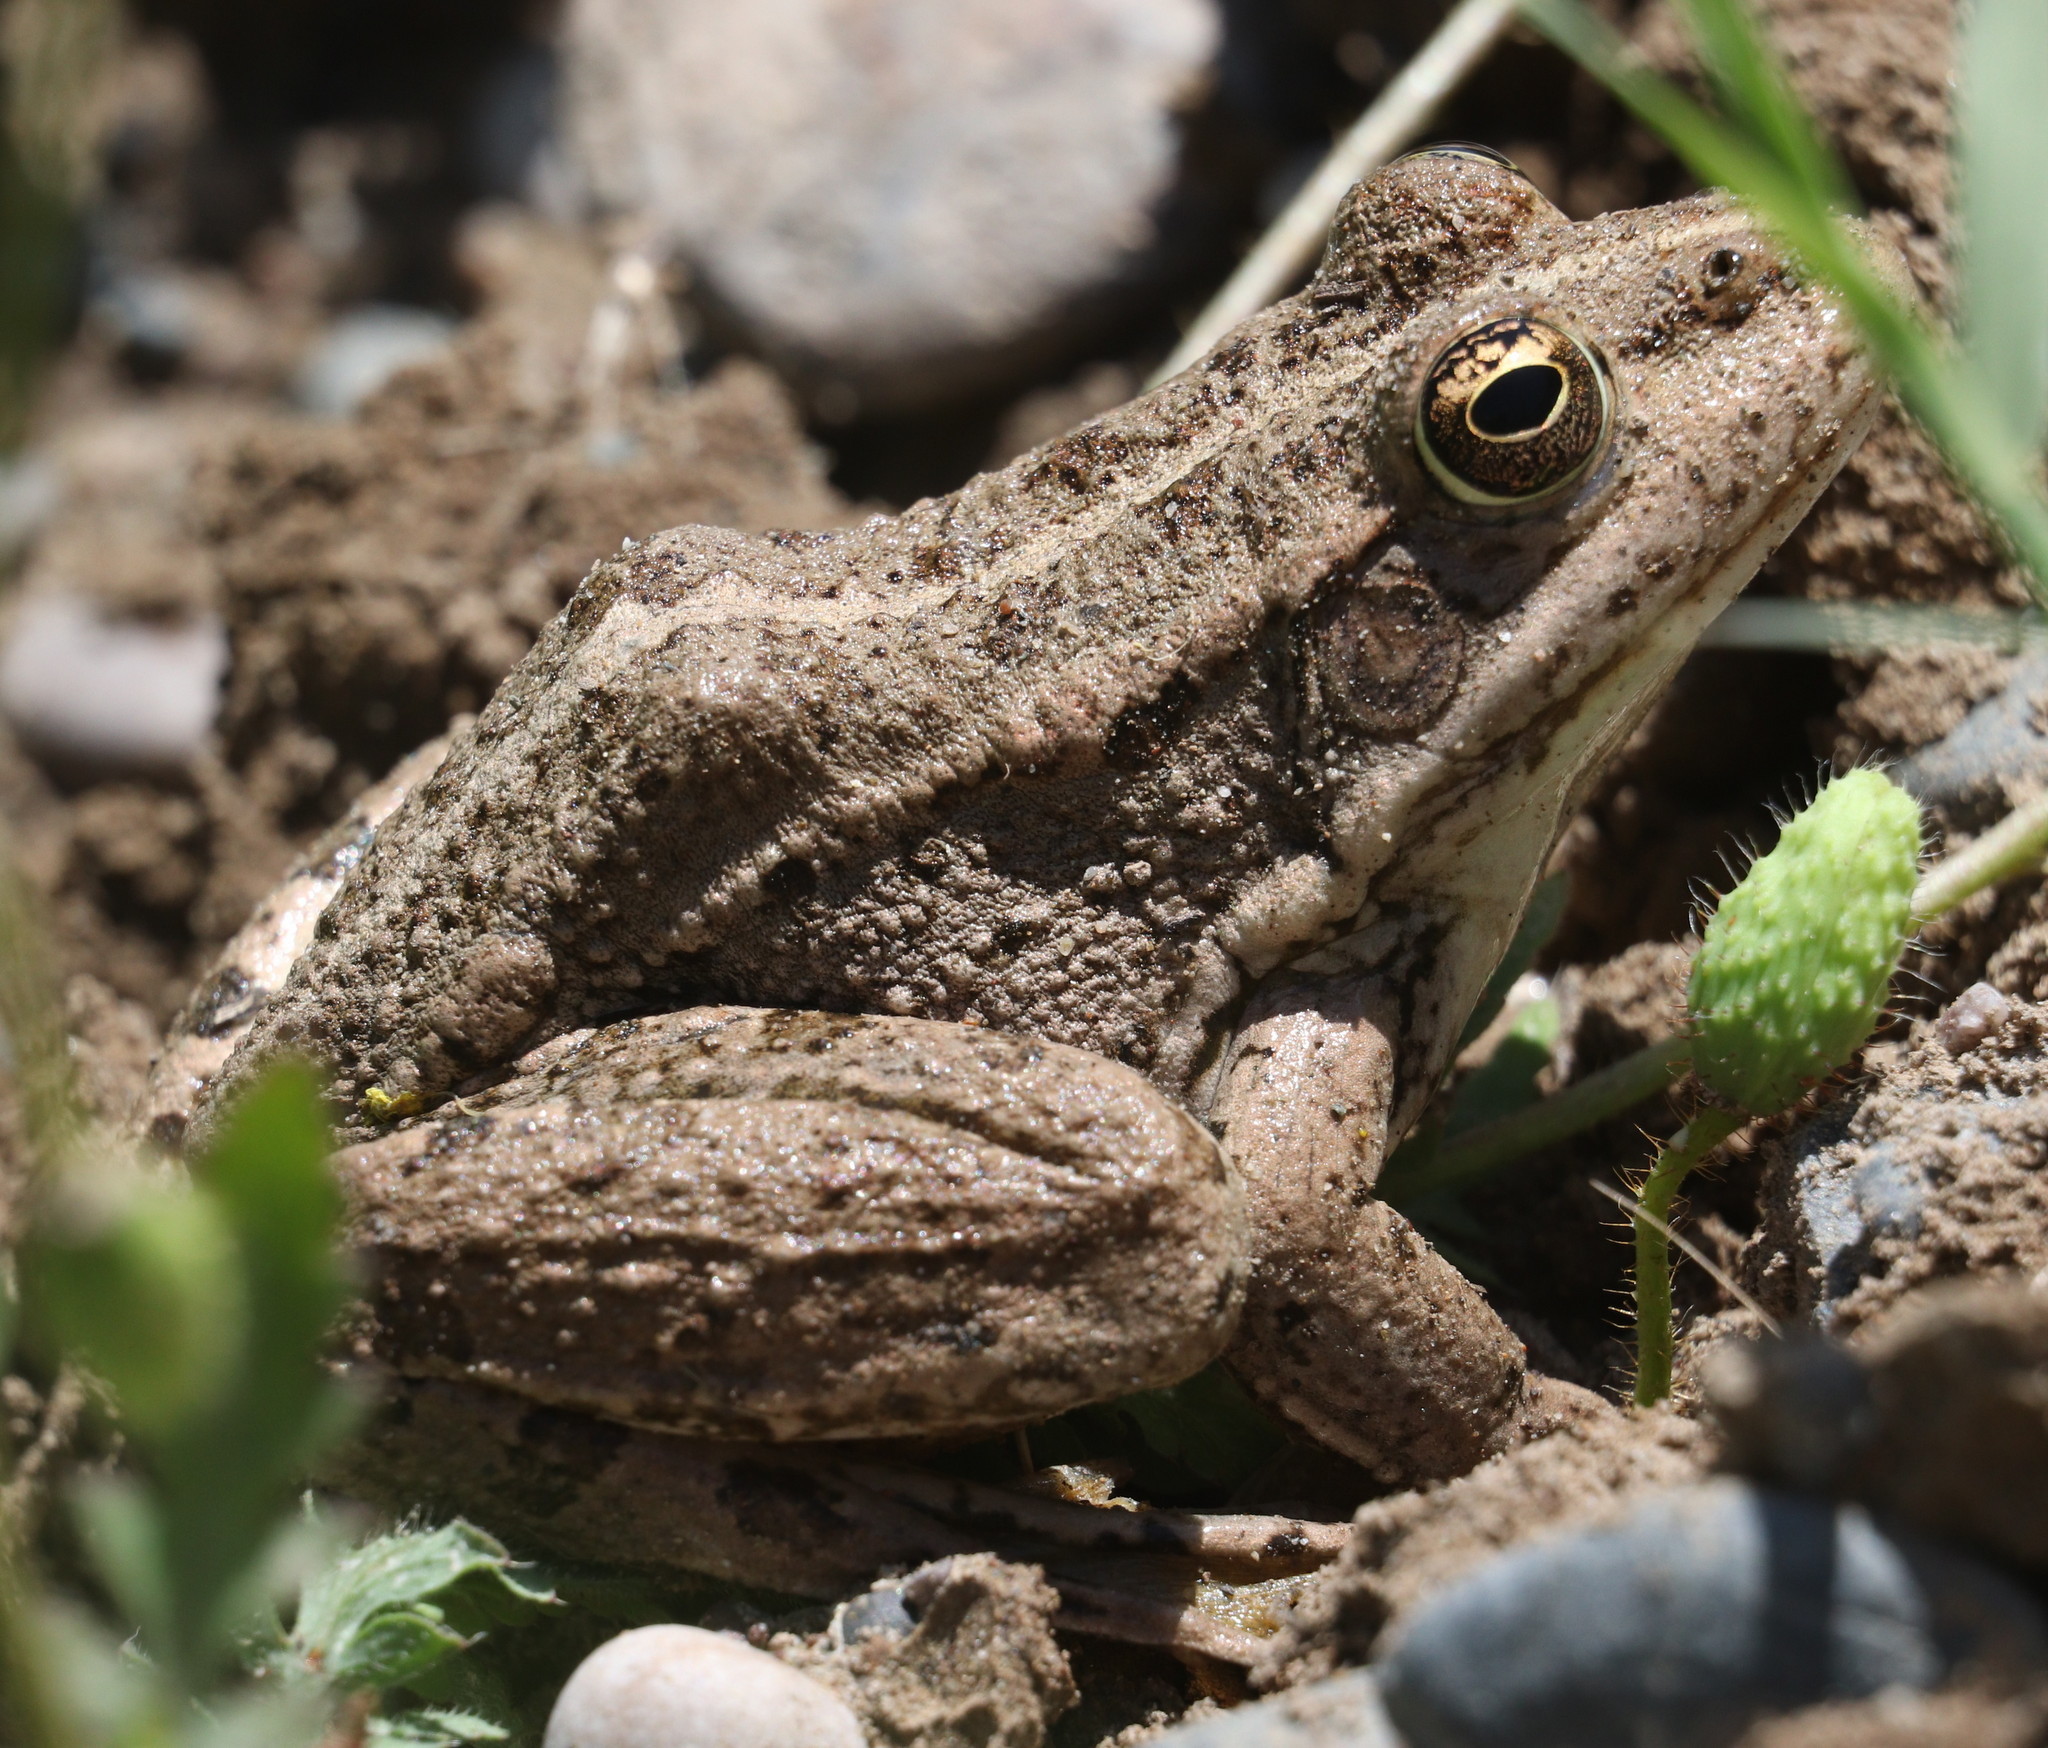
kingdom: Animalia
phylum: Chordata
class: Amphibia
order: Anura
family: Ranidae
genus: Pelophylax
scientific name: Pelophylax ridibundus
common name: Marsh frog
